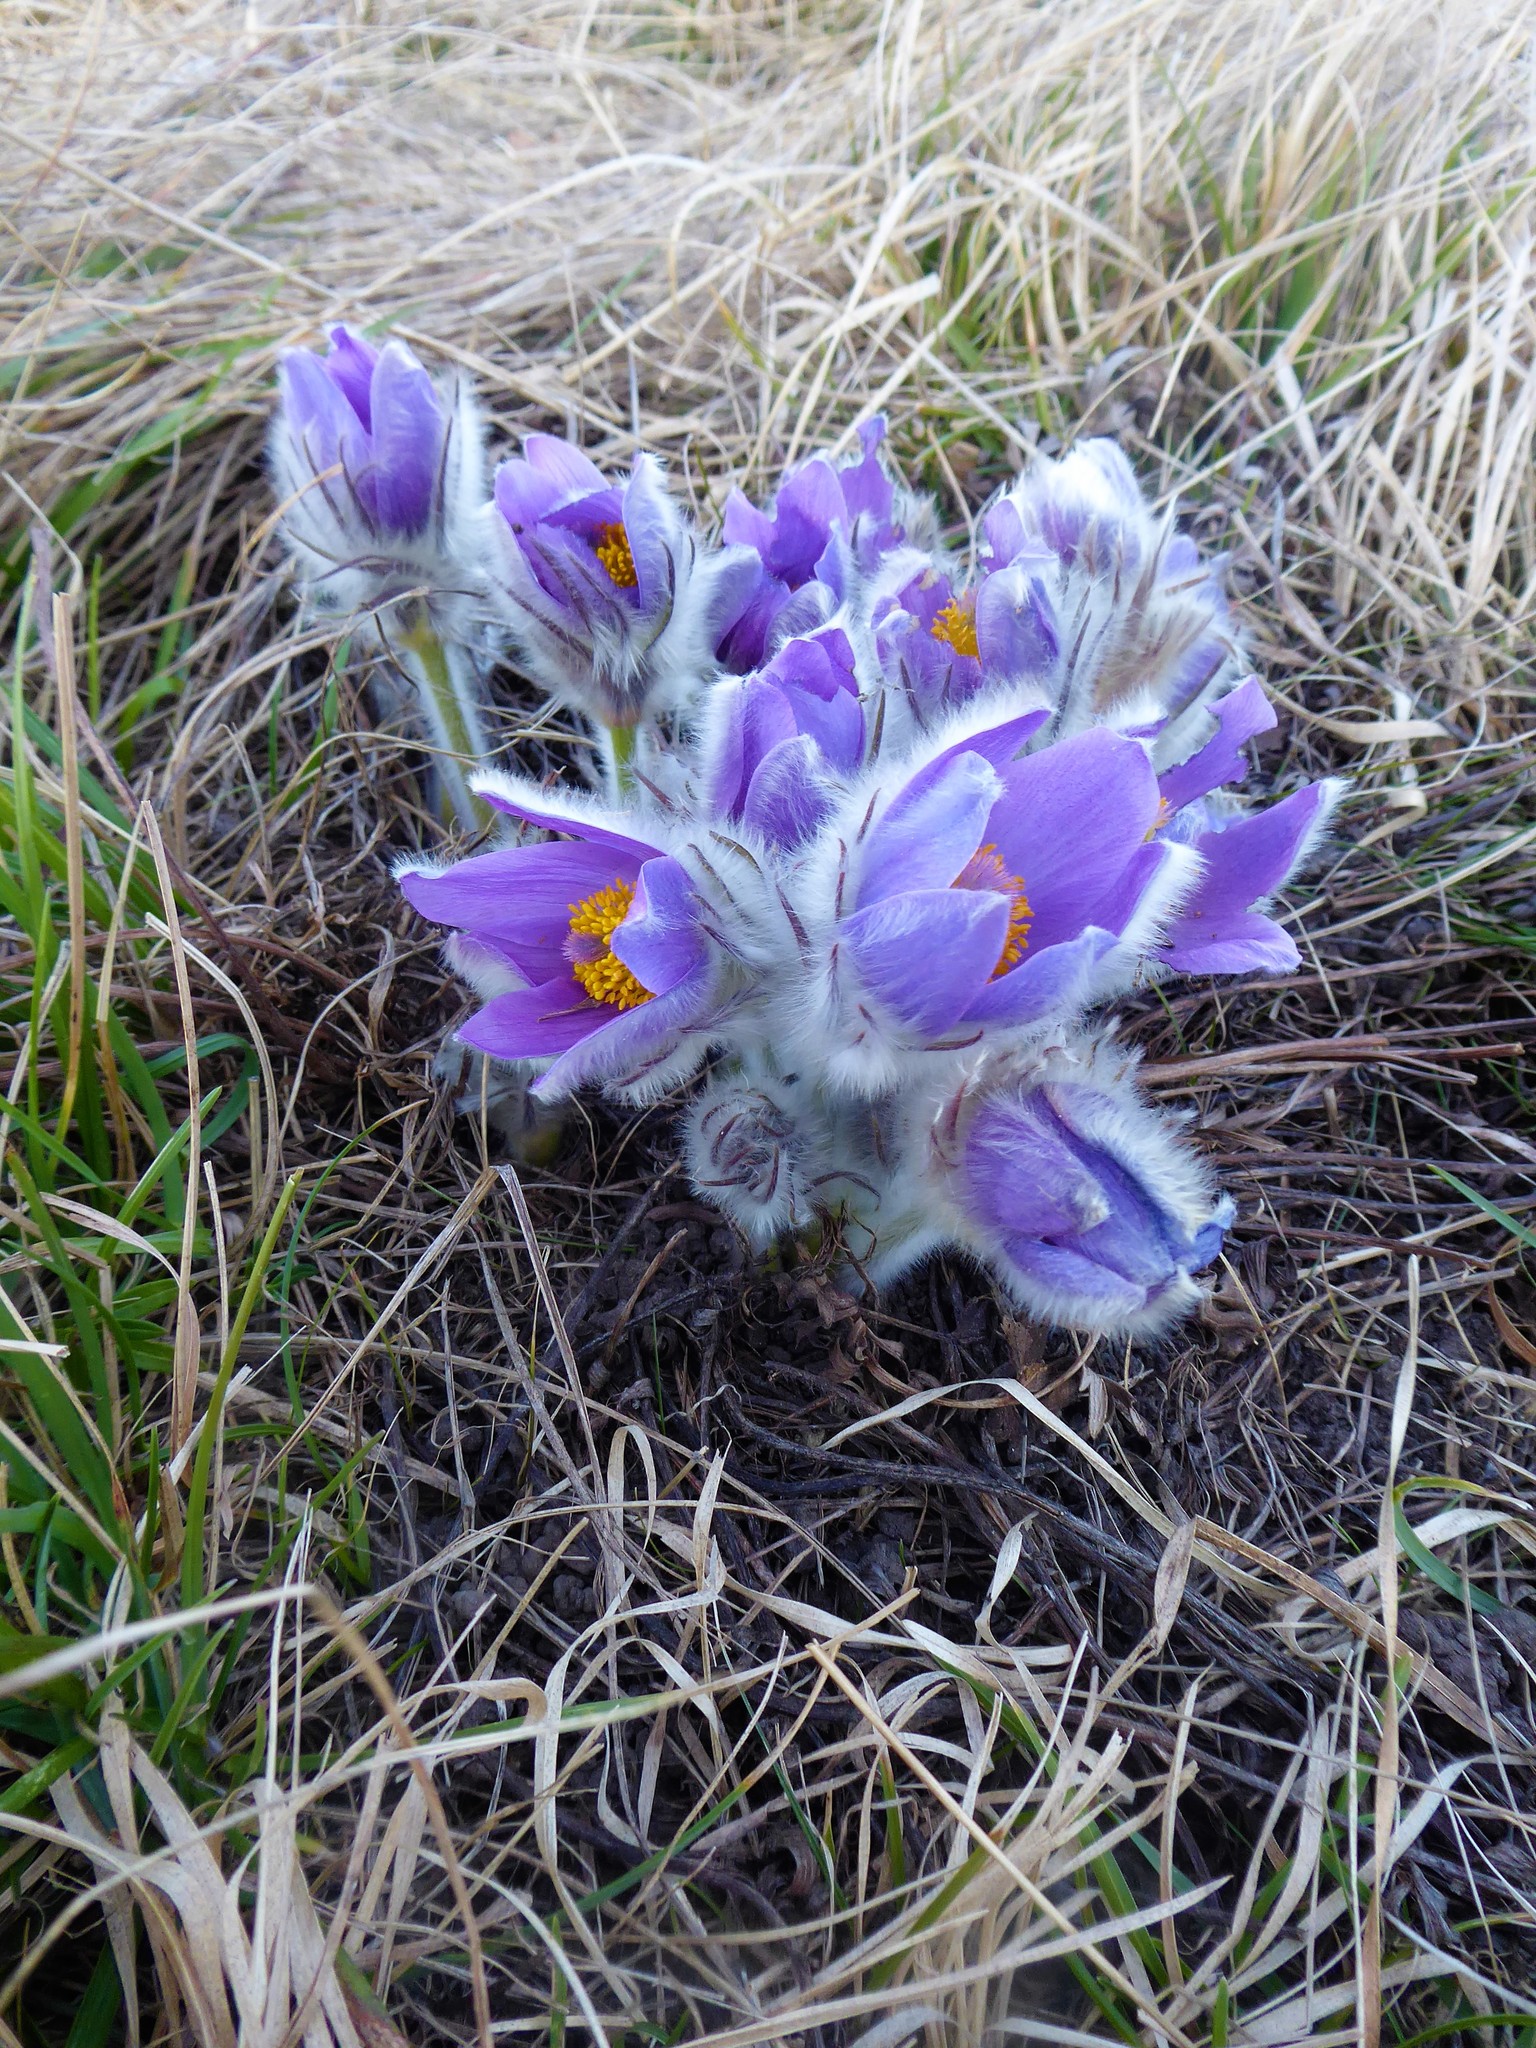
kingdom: Plantae
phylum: Tracheophyta
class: Magnoliopsida
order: Ranunculales
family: Ranunculaceae
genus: Pulsatilla
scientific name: Pulsatilla grandis
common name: Greater pasque flower
